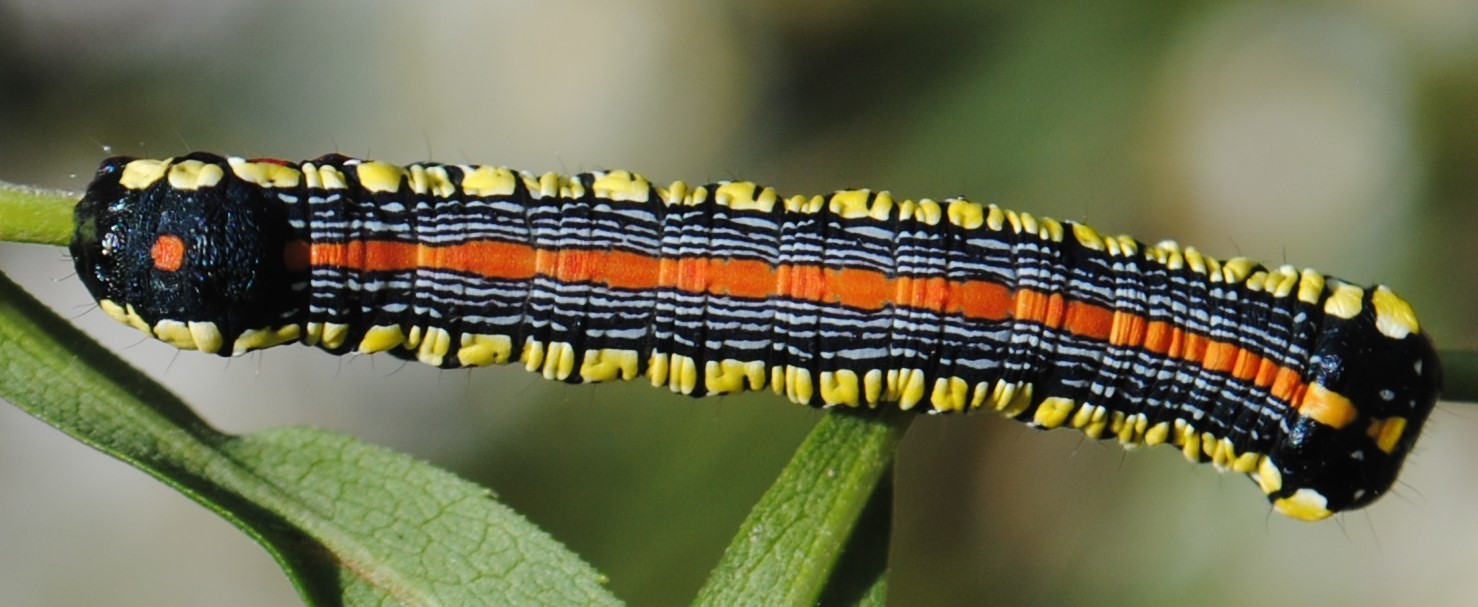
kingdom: Animalia
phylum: Arthropoda
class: Insecta
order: Lepidoptera
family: Noctuidae
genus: Cucullia
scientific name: Cucullia convexipennis
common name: Brown-hooded owlet
